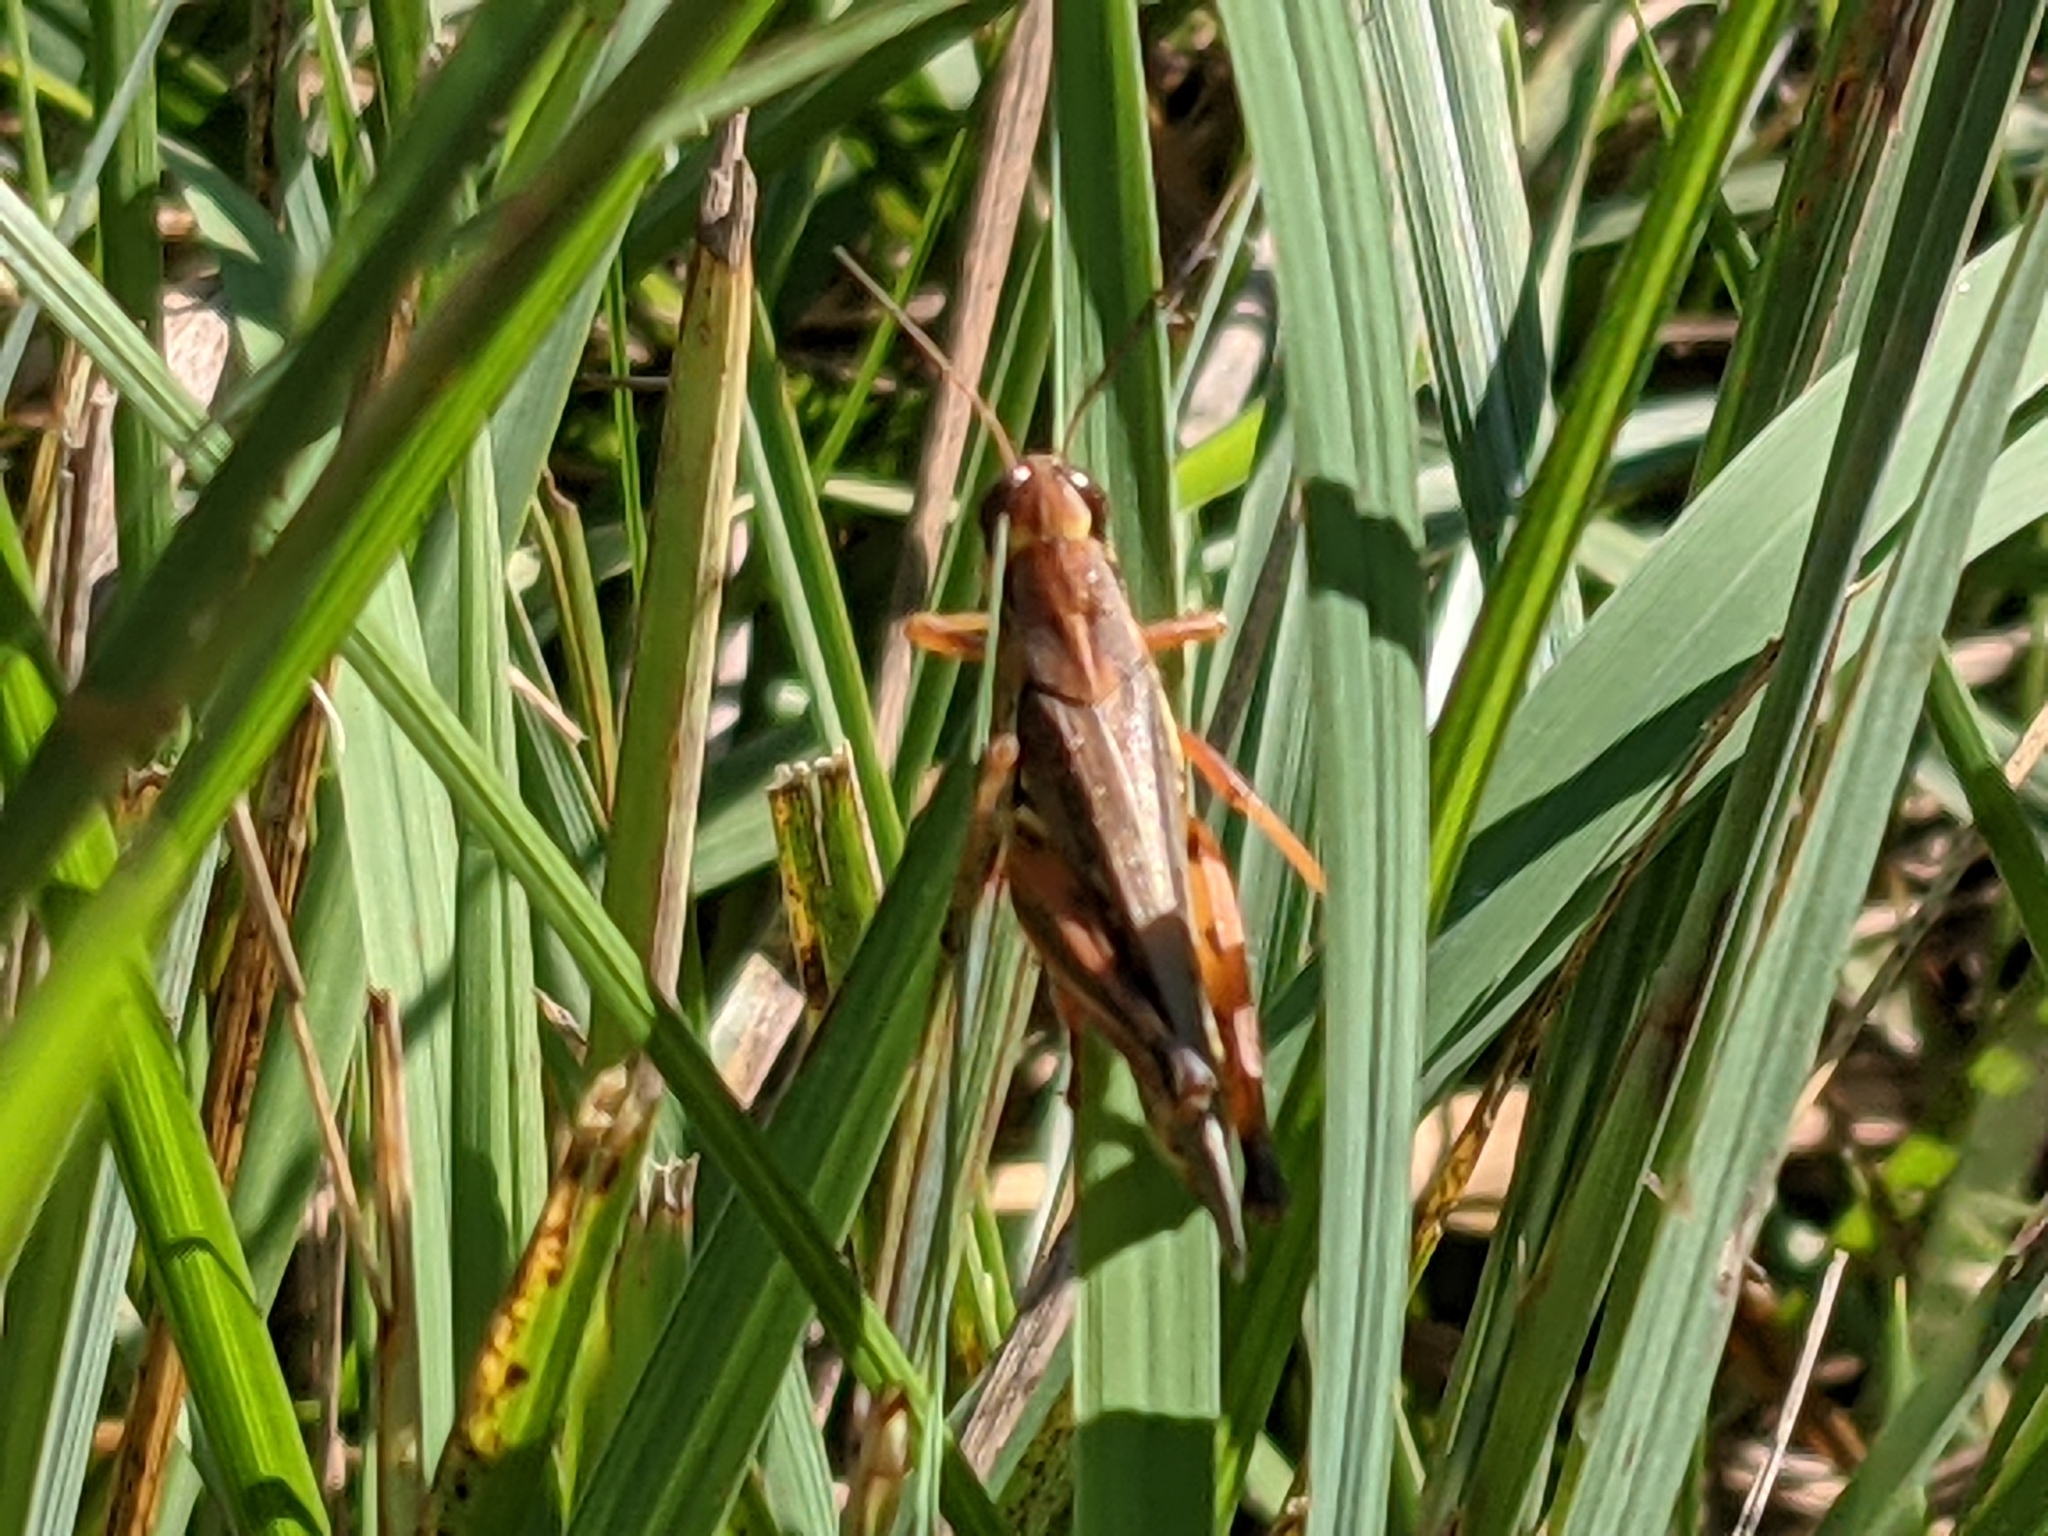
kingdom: Animalia
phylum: Arthropoda
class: Insecta
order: Orthoptera
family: Acrididae
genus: Melanoplus
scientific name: Melanoplus femurrubrum
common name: Red-legged grasshopper
